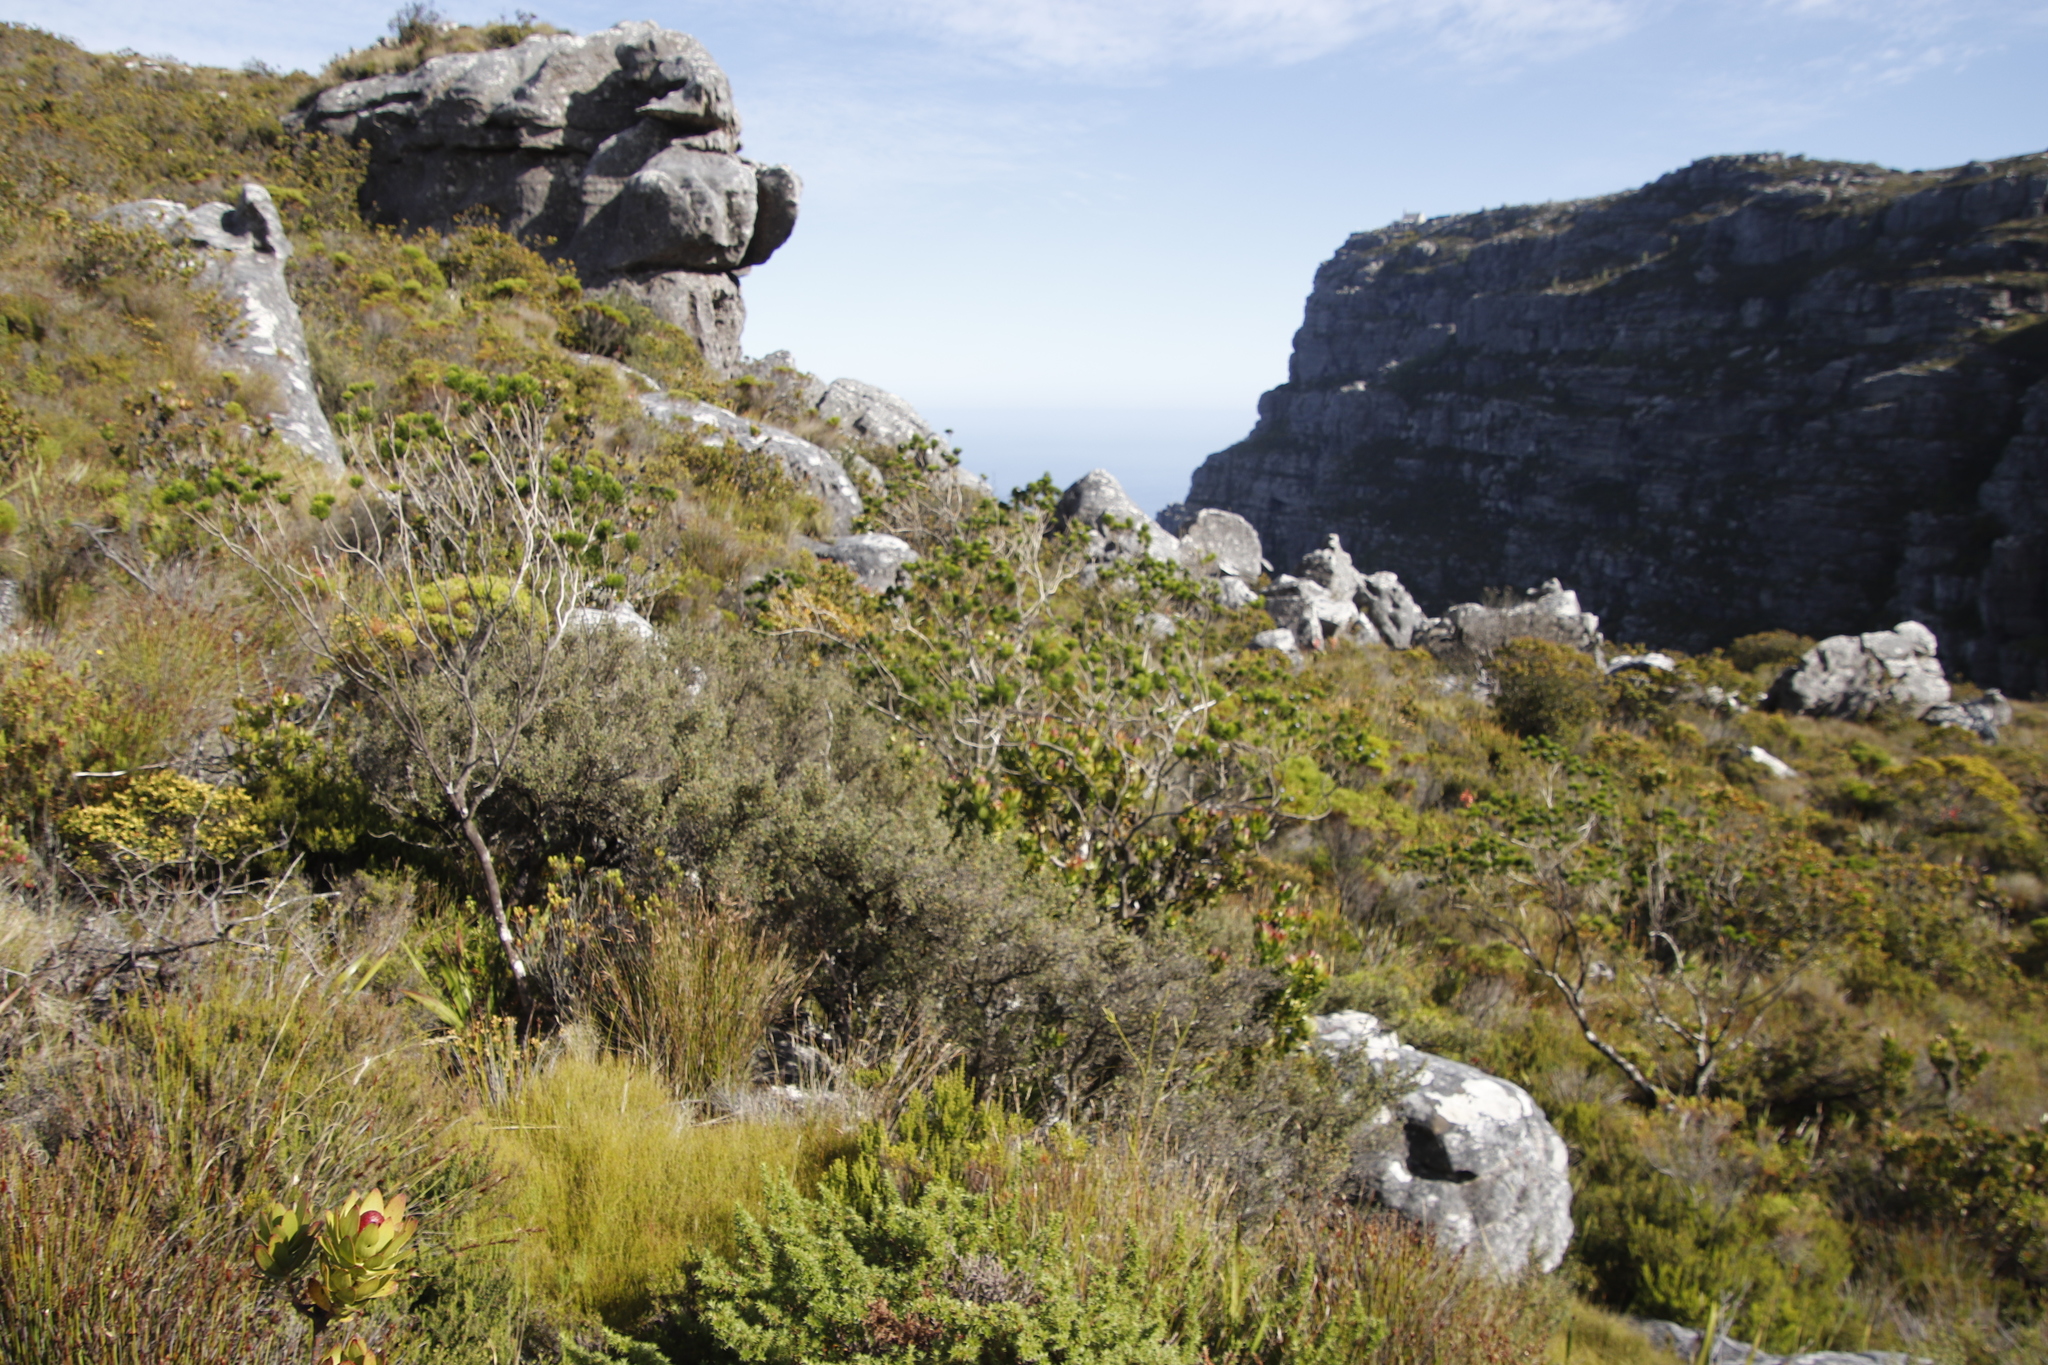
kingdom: Plantae
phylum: Tracheophyta
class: Magnoliopsida
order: Fabales
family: Fabaceae
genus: Psoralea
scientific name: Psoralea pinnata
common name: African scurfpea
